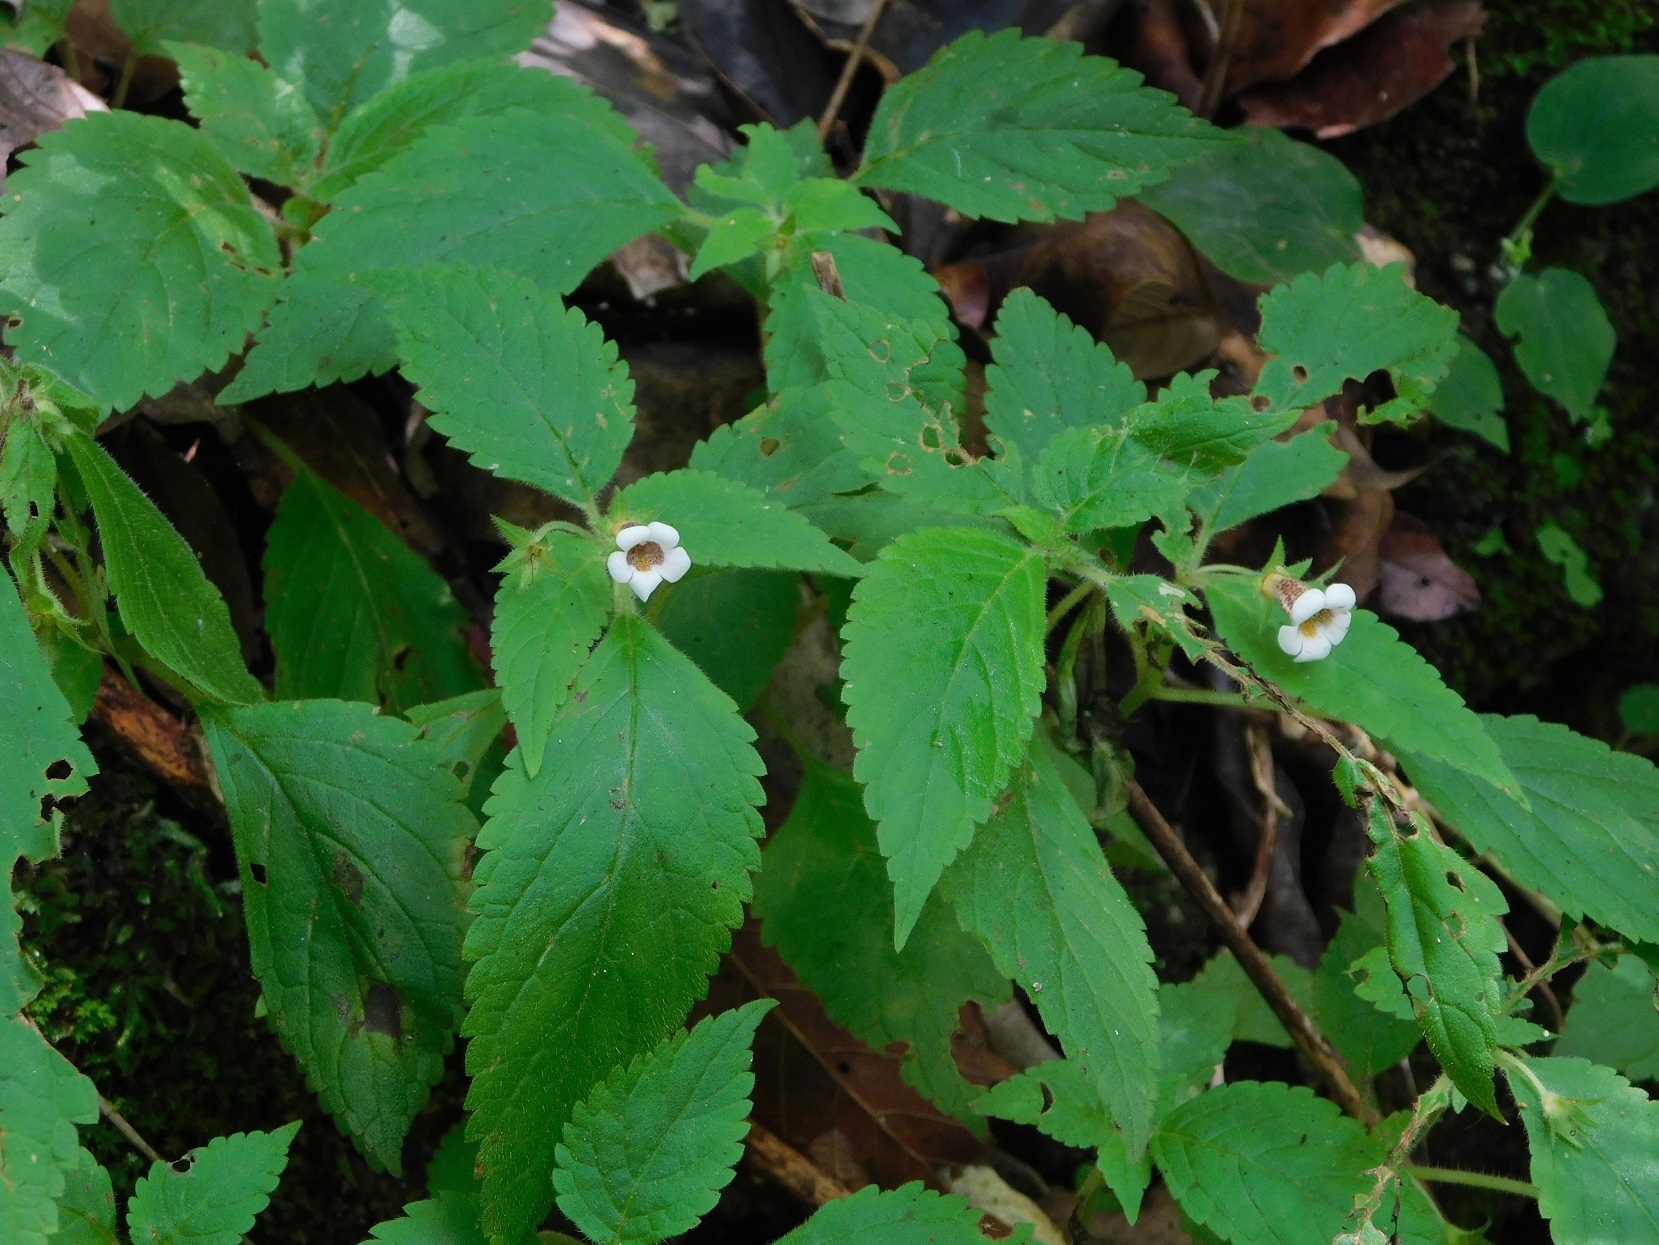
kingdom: Plantae
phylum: Tracheophyta
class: Magnoliopsida
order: Lamiales
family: Gesneriaceae
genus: Achimenes
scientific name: Achimenes misera
